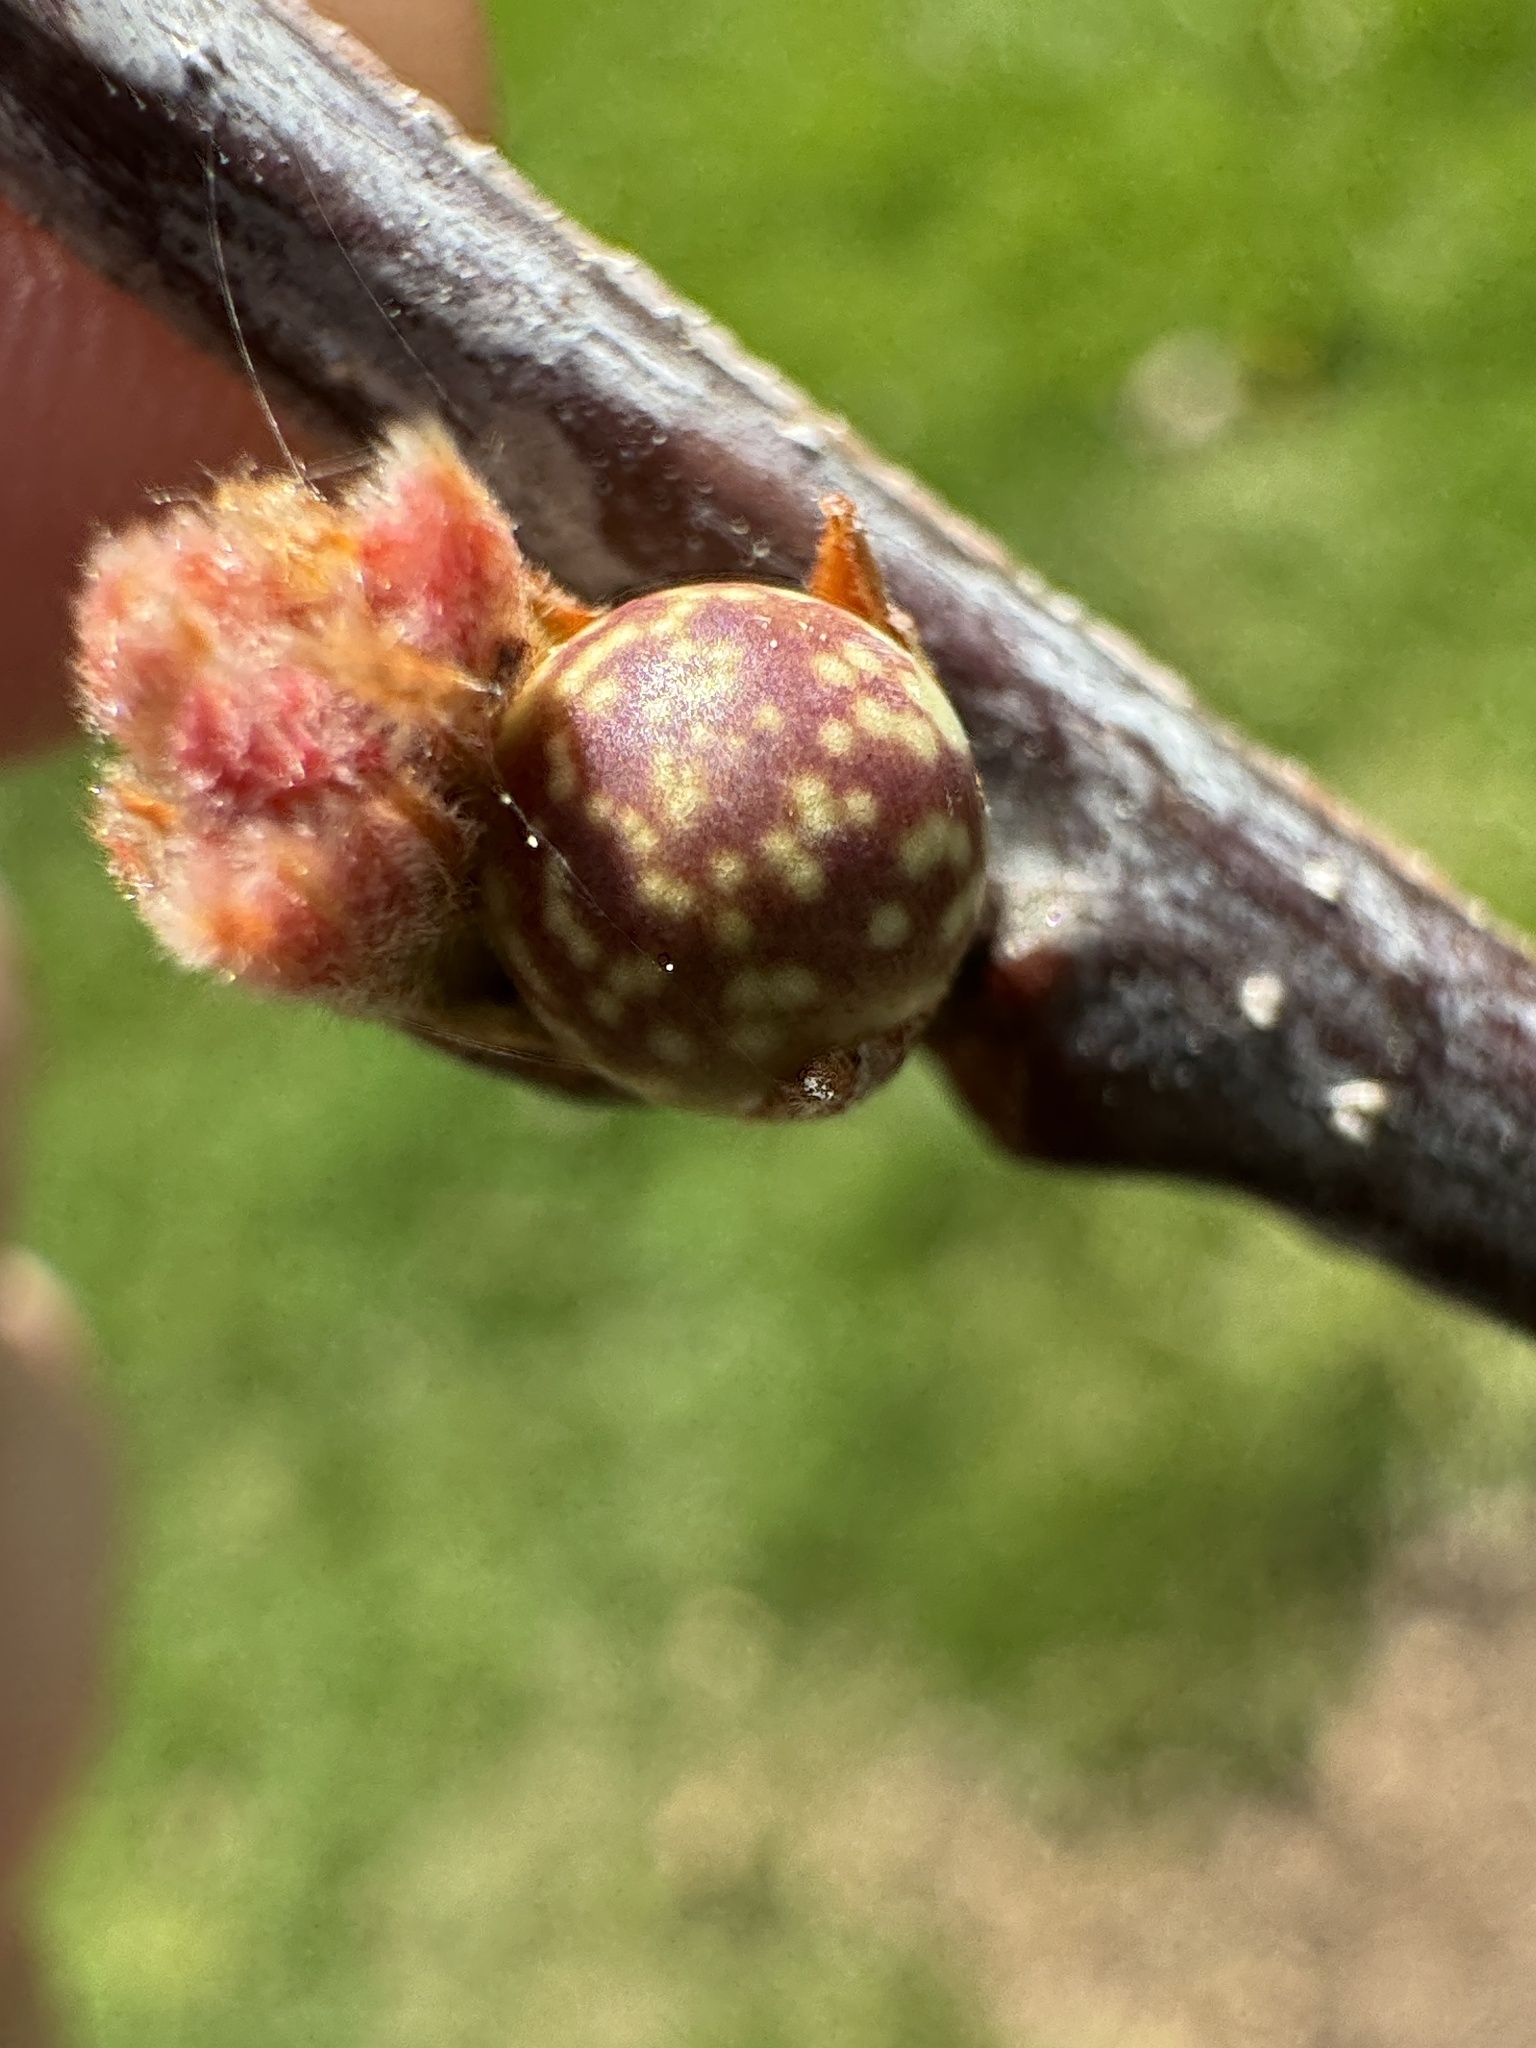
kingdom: Animalia
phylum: Arthropoda
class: Insecta
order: Hymenoptera
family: Cynipidae
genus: Andricus
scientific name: Andricus
